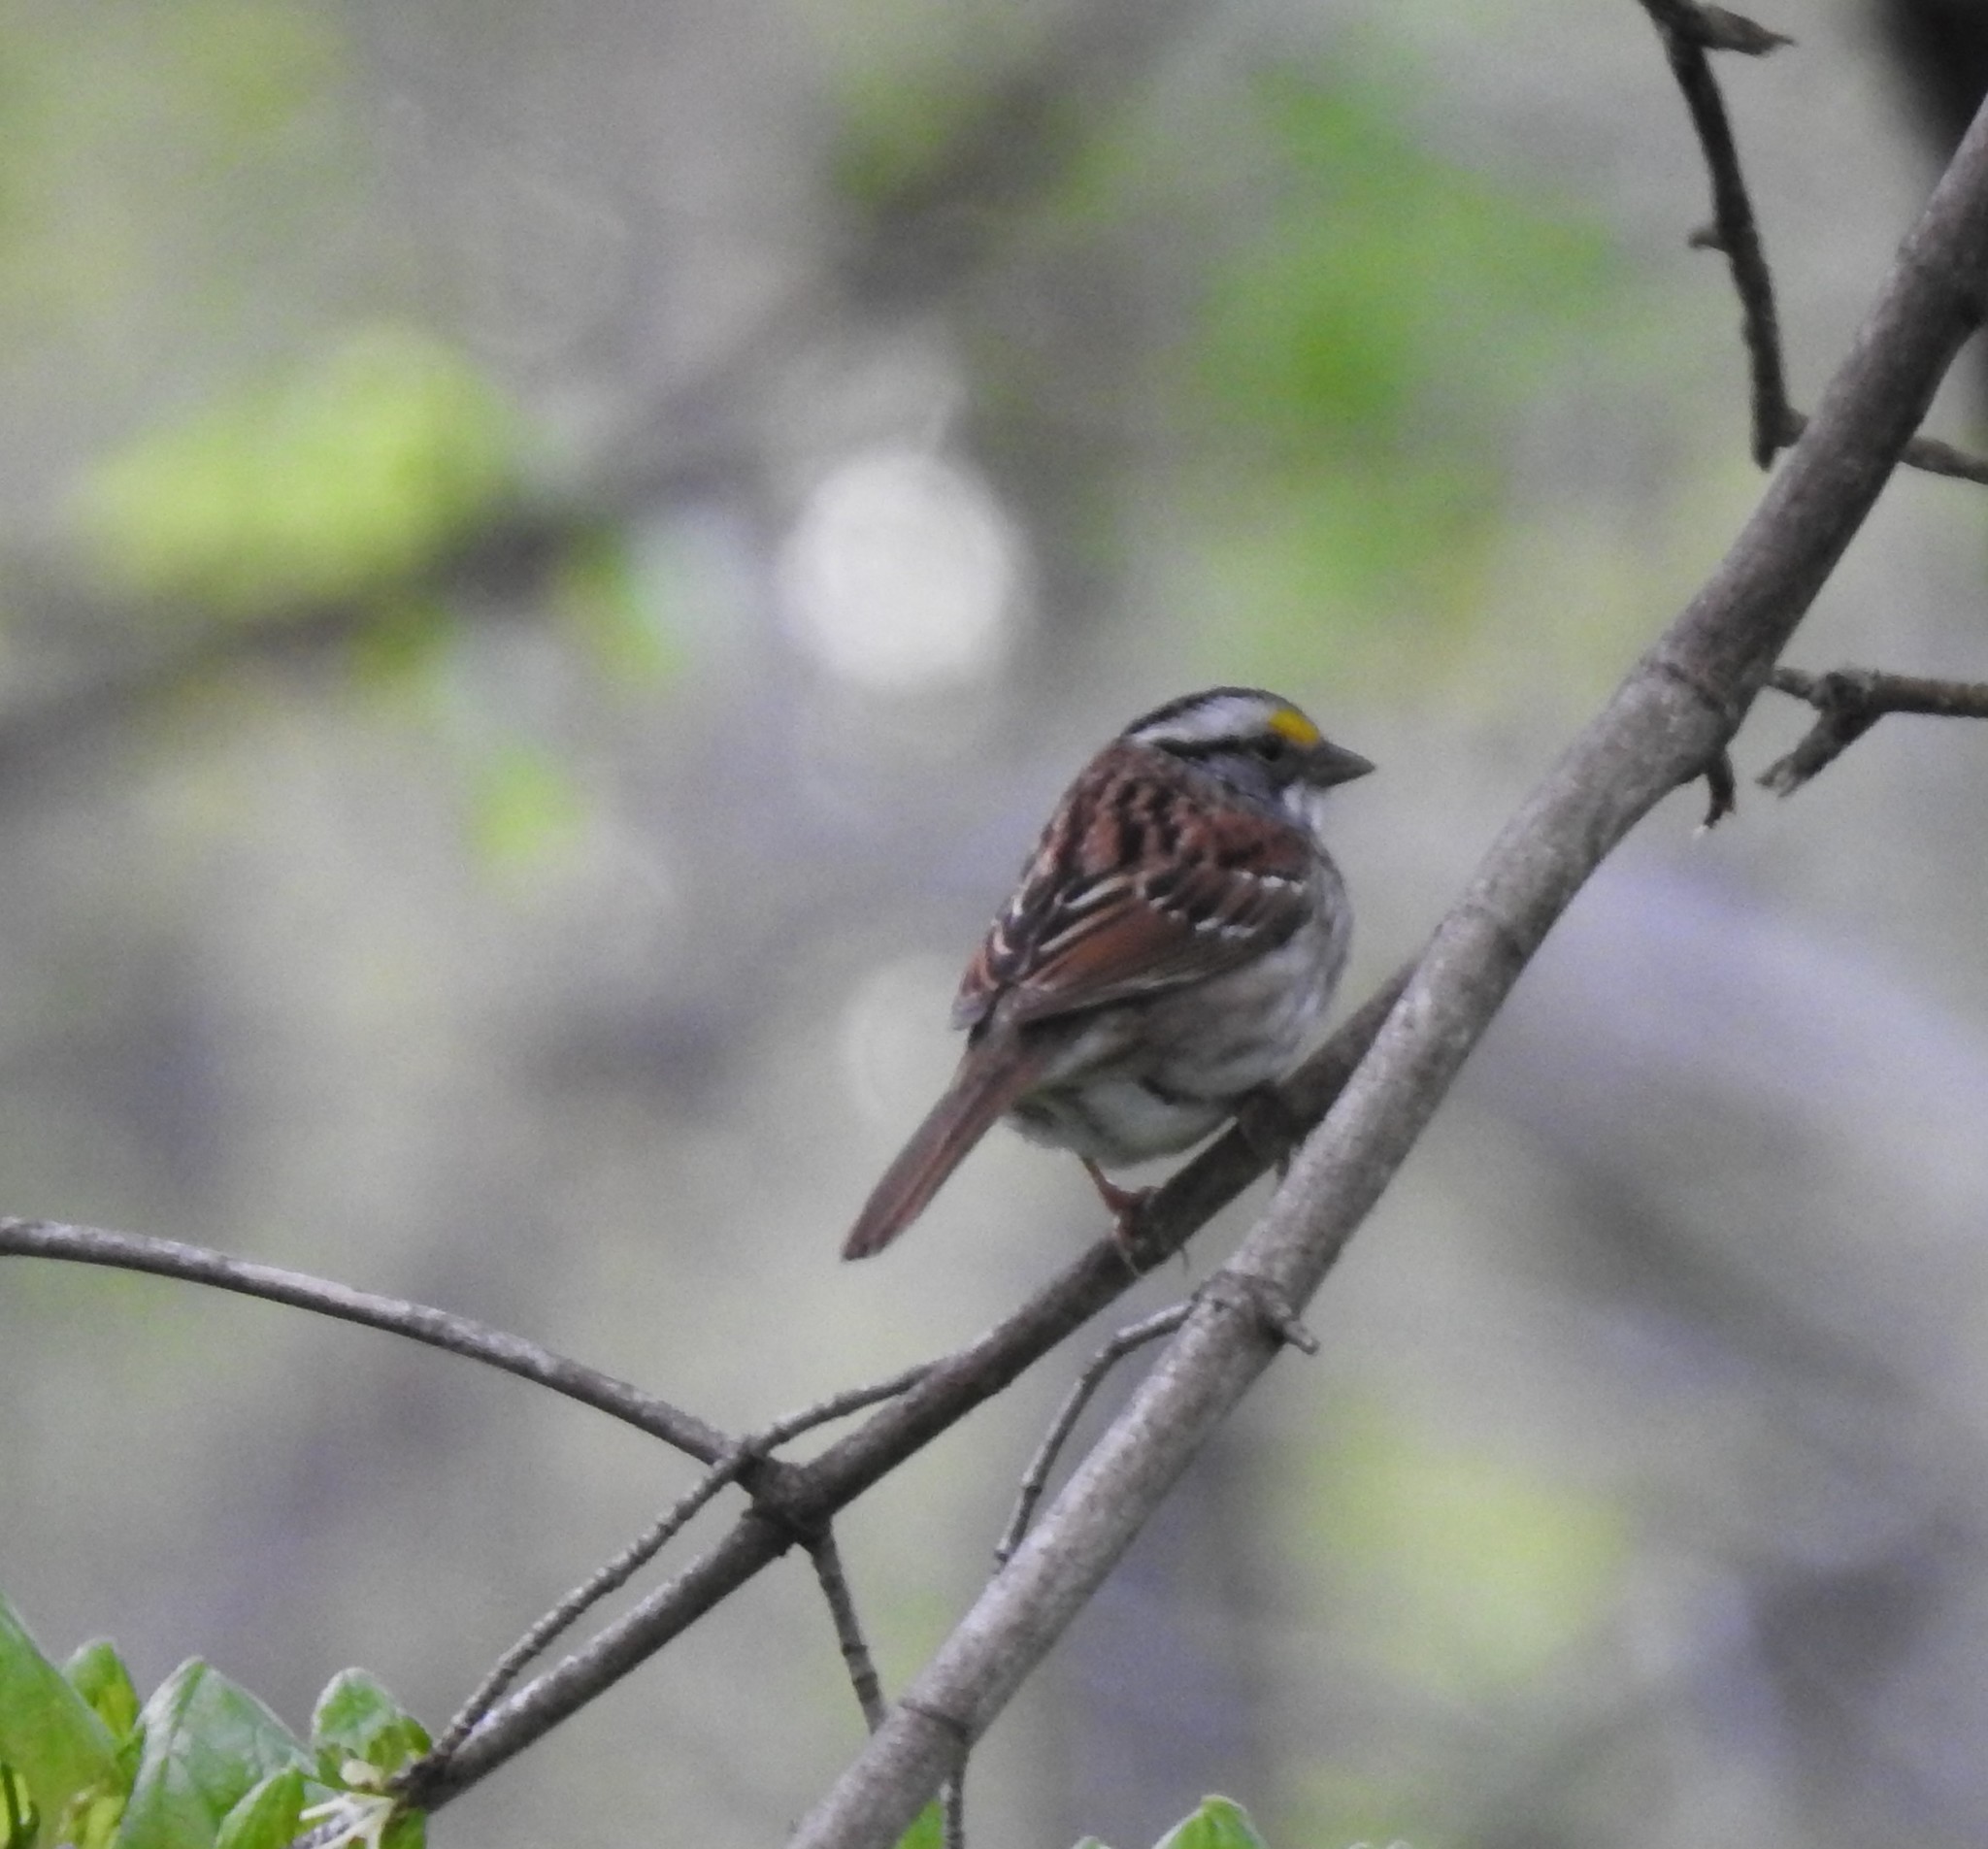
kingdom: Animalia
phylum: Chordata
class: Aves
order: Passeriformes
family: Passerellidae
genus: Zonotrichia
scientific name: Zonotrichia albicollis
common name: White-throated sparrow
